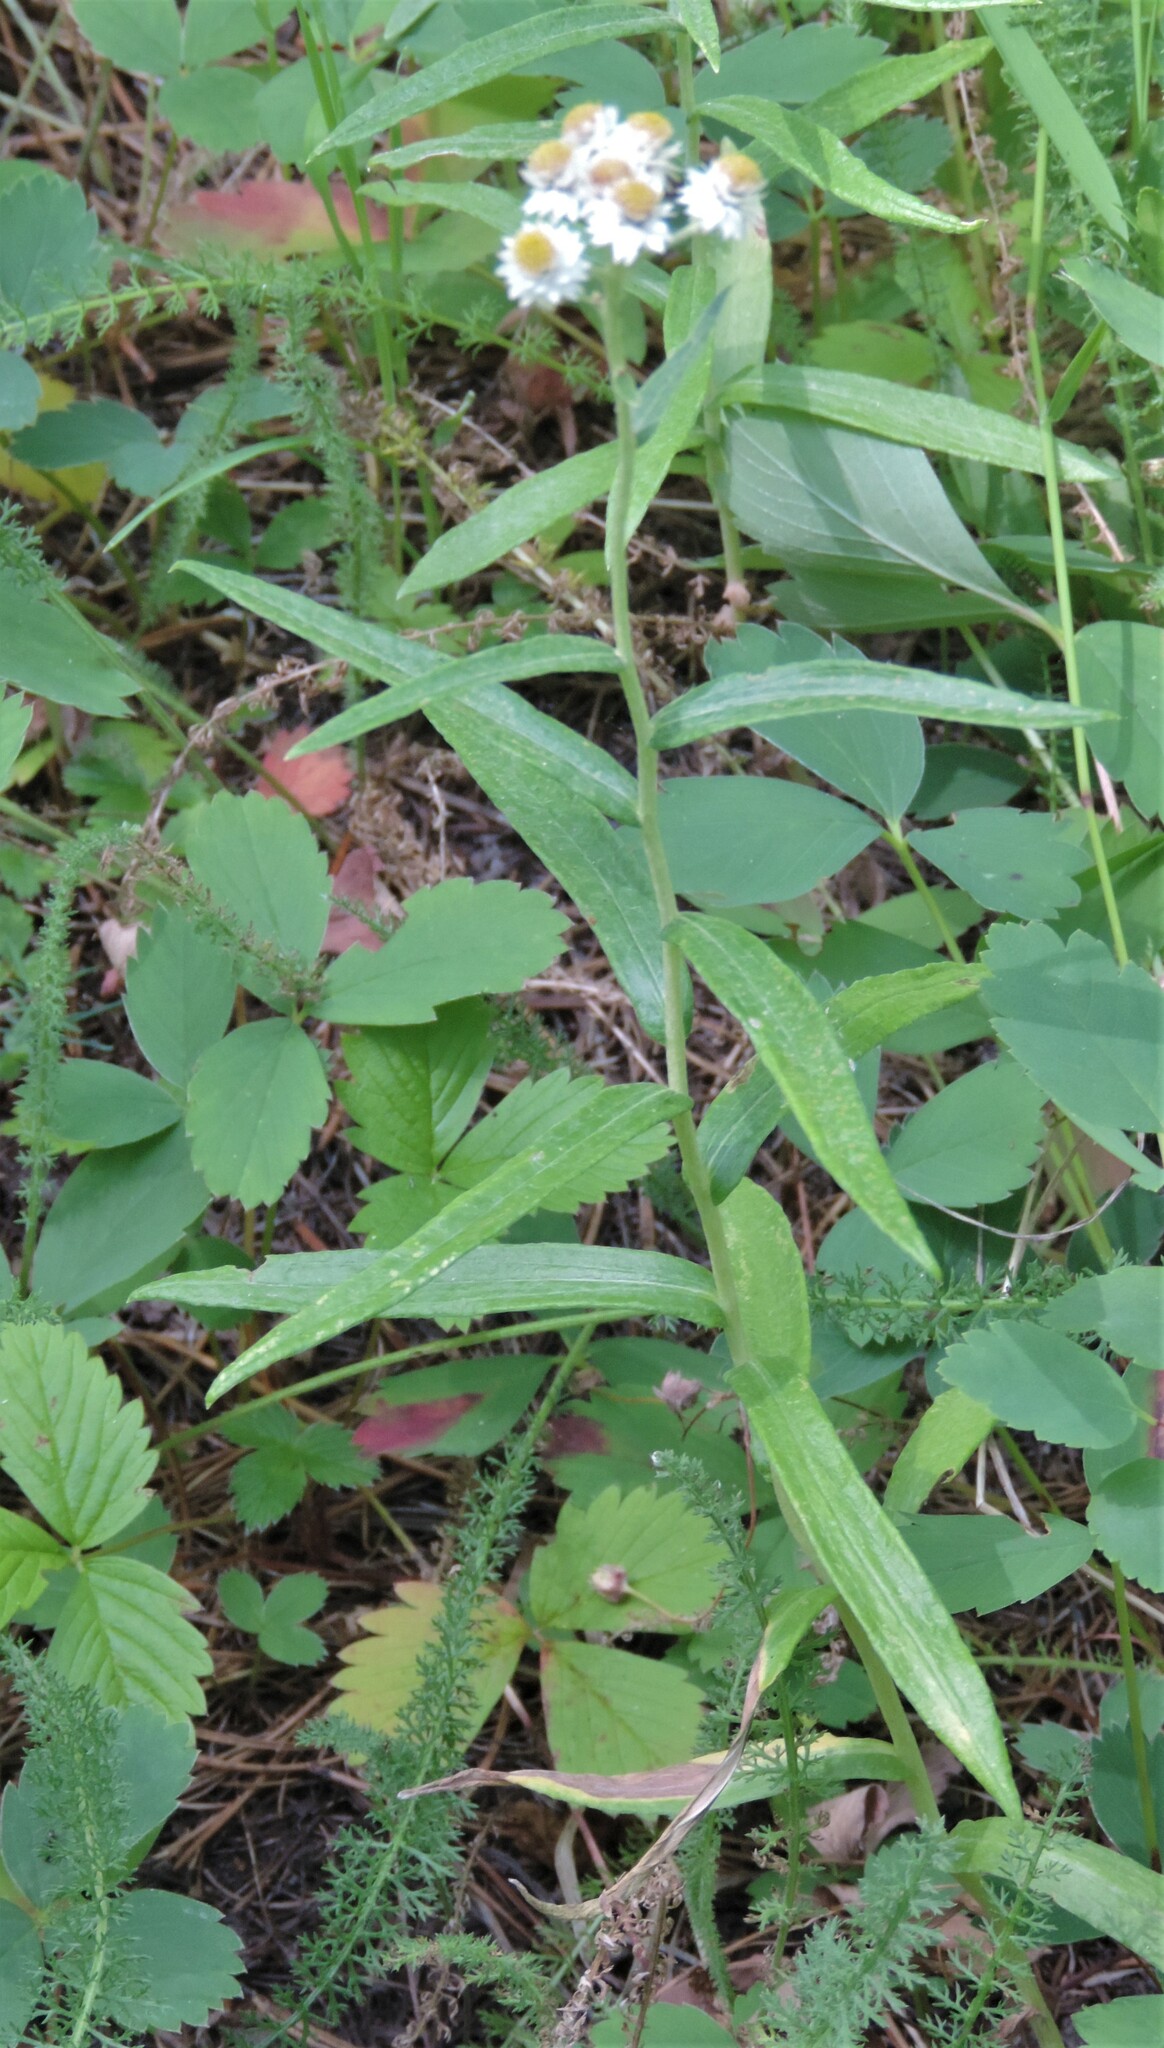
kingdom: Plantae
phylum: Tracheophyta
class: Magnoliopsida
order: Asterales
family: Asteraceae
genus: Anaphalis
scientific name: Anaphalis margaritacea
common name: Pearly everlasting
